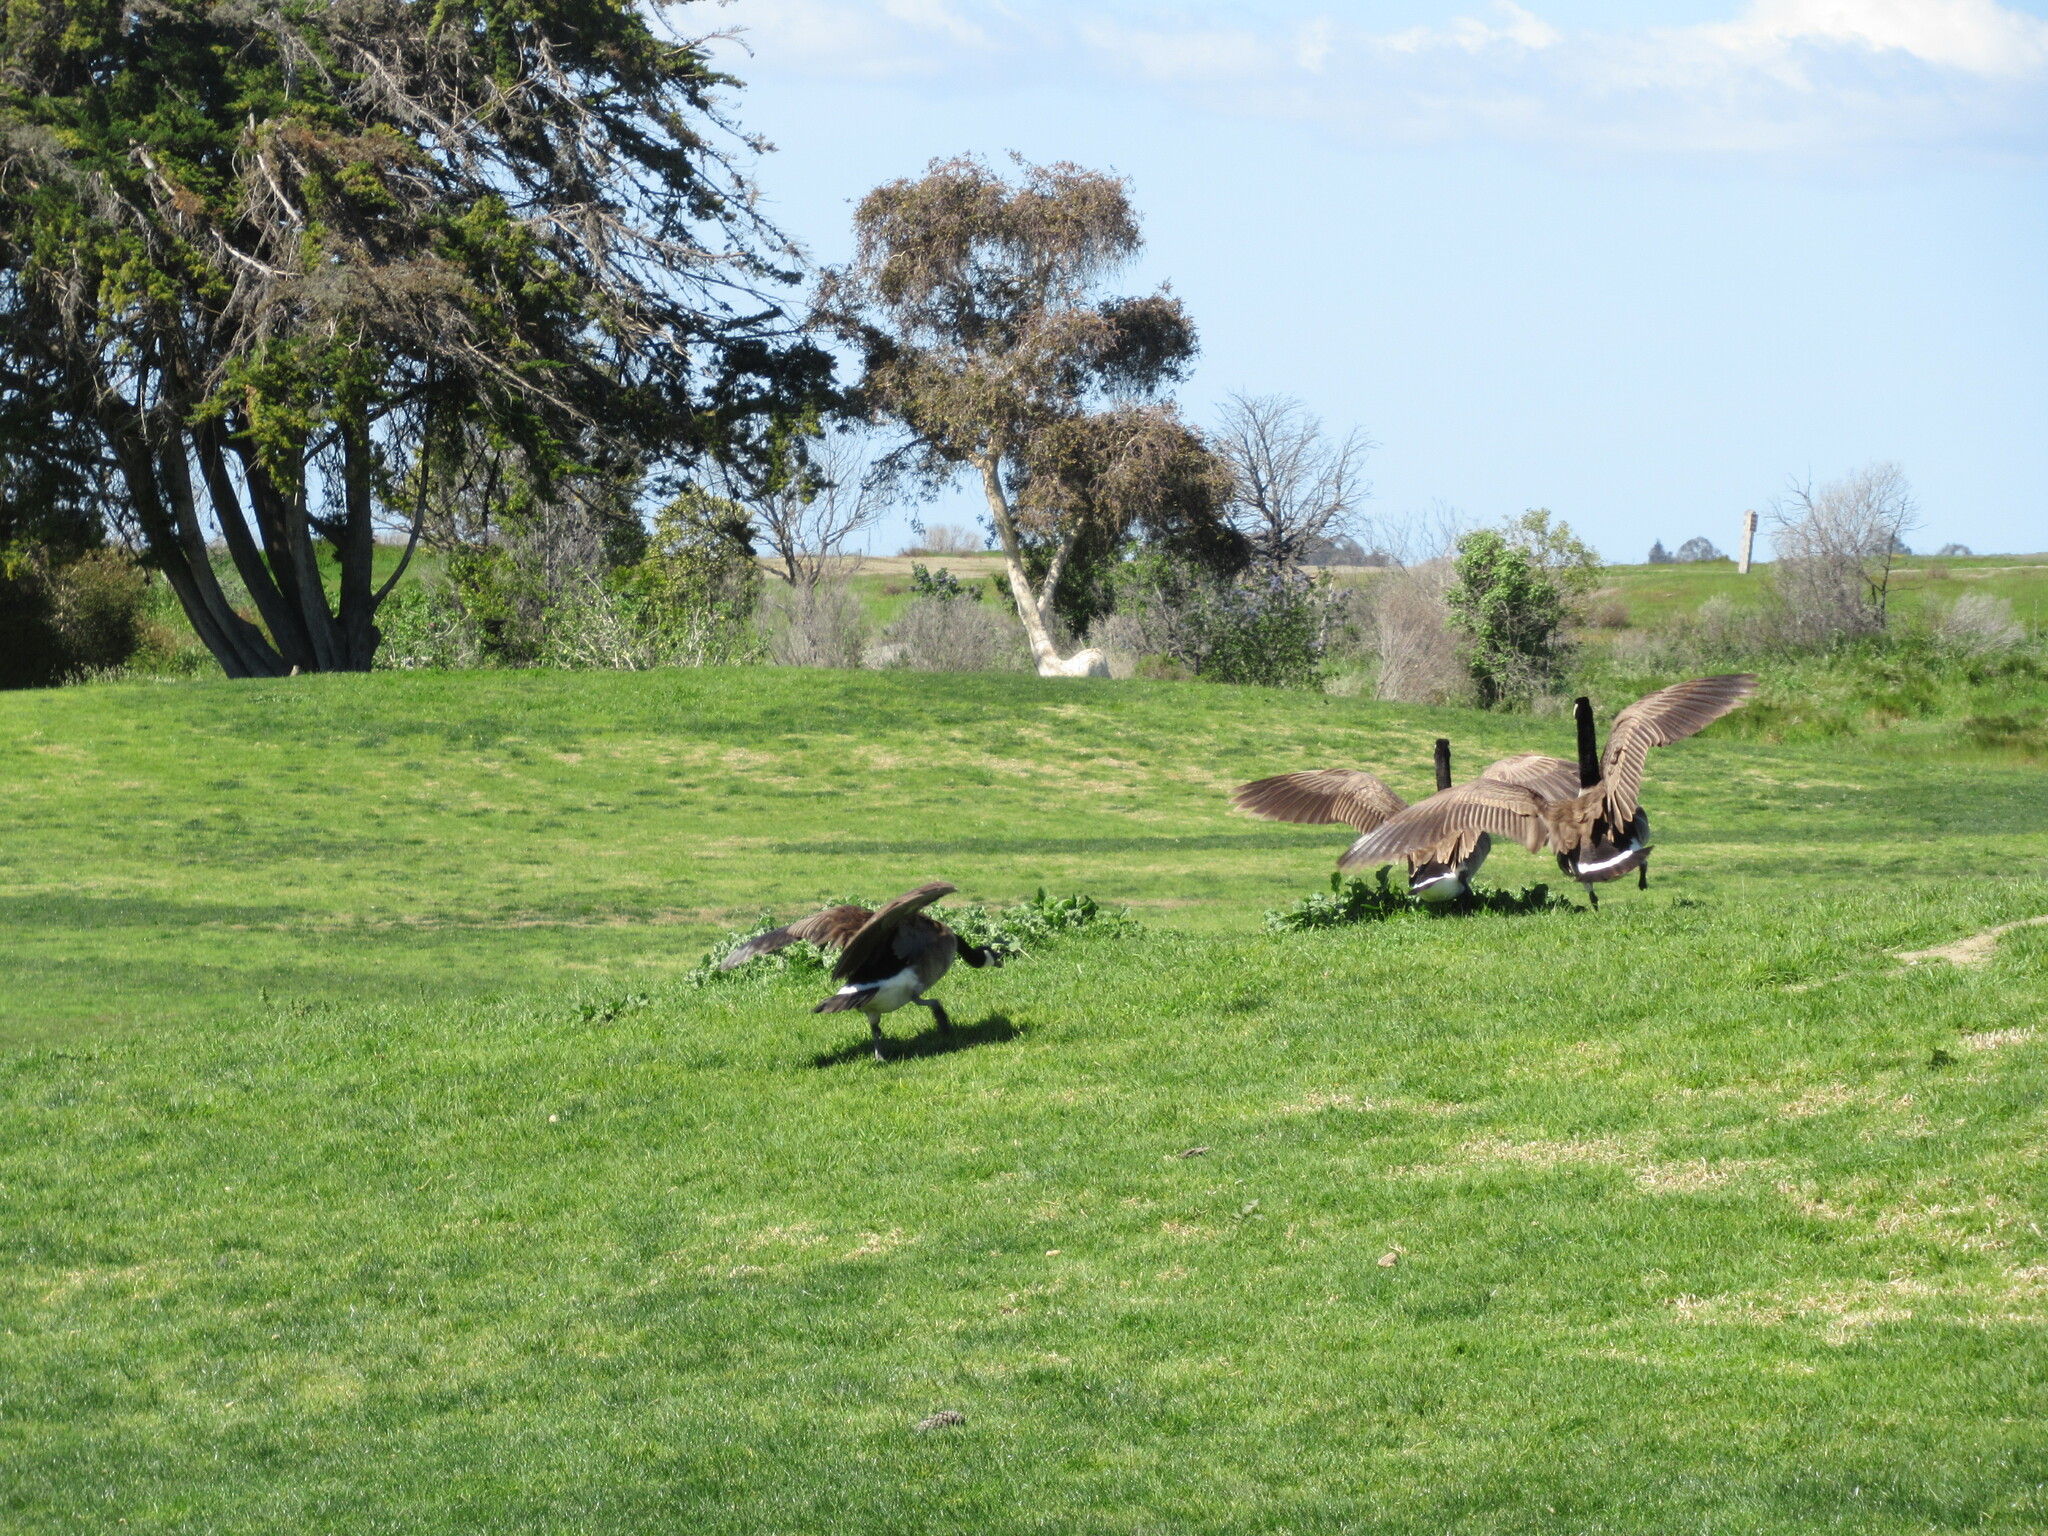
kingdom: Animalia
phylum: Chordata
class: Aves
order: Anseriformes
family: Anatidae
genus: Branta
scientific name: Branta canadensis
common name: Canada goose
